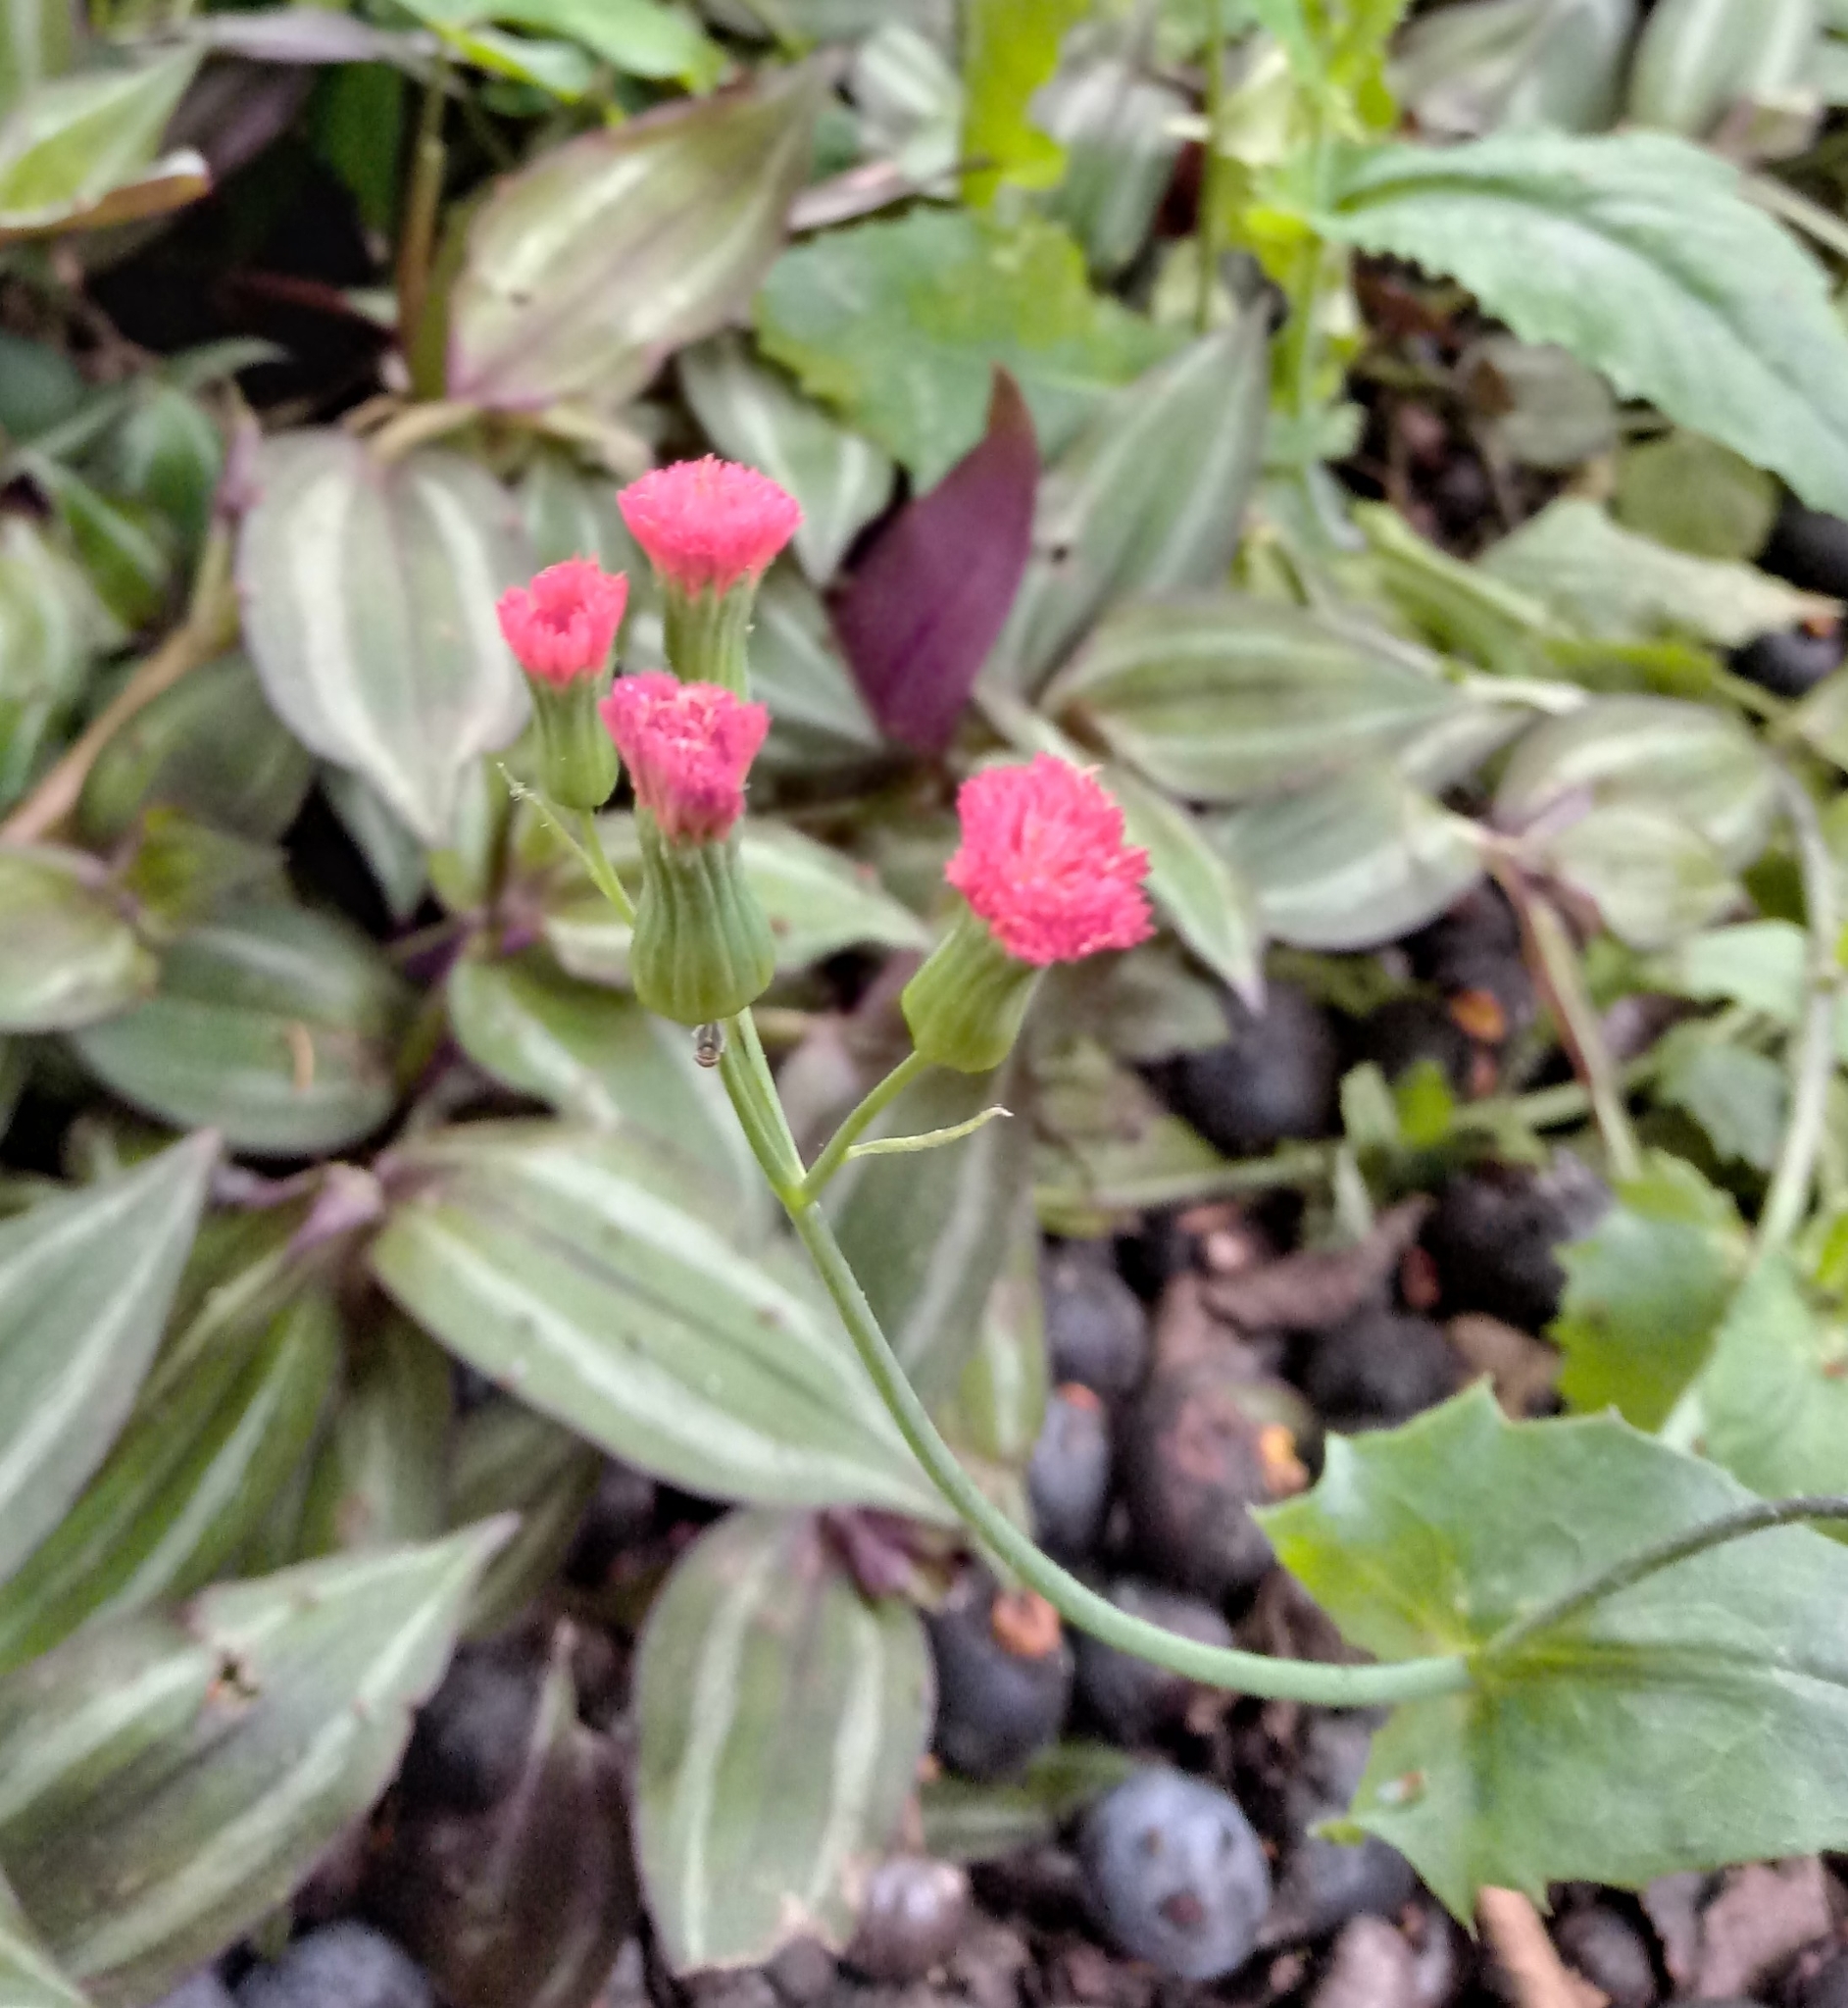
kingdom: Plantae
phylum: Tracheophyta
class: Magnoliopsida
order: Asterales
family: Asteraceae
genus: Emilia
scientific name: Emilia fosbergii
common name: Florida tasselflower
